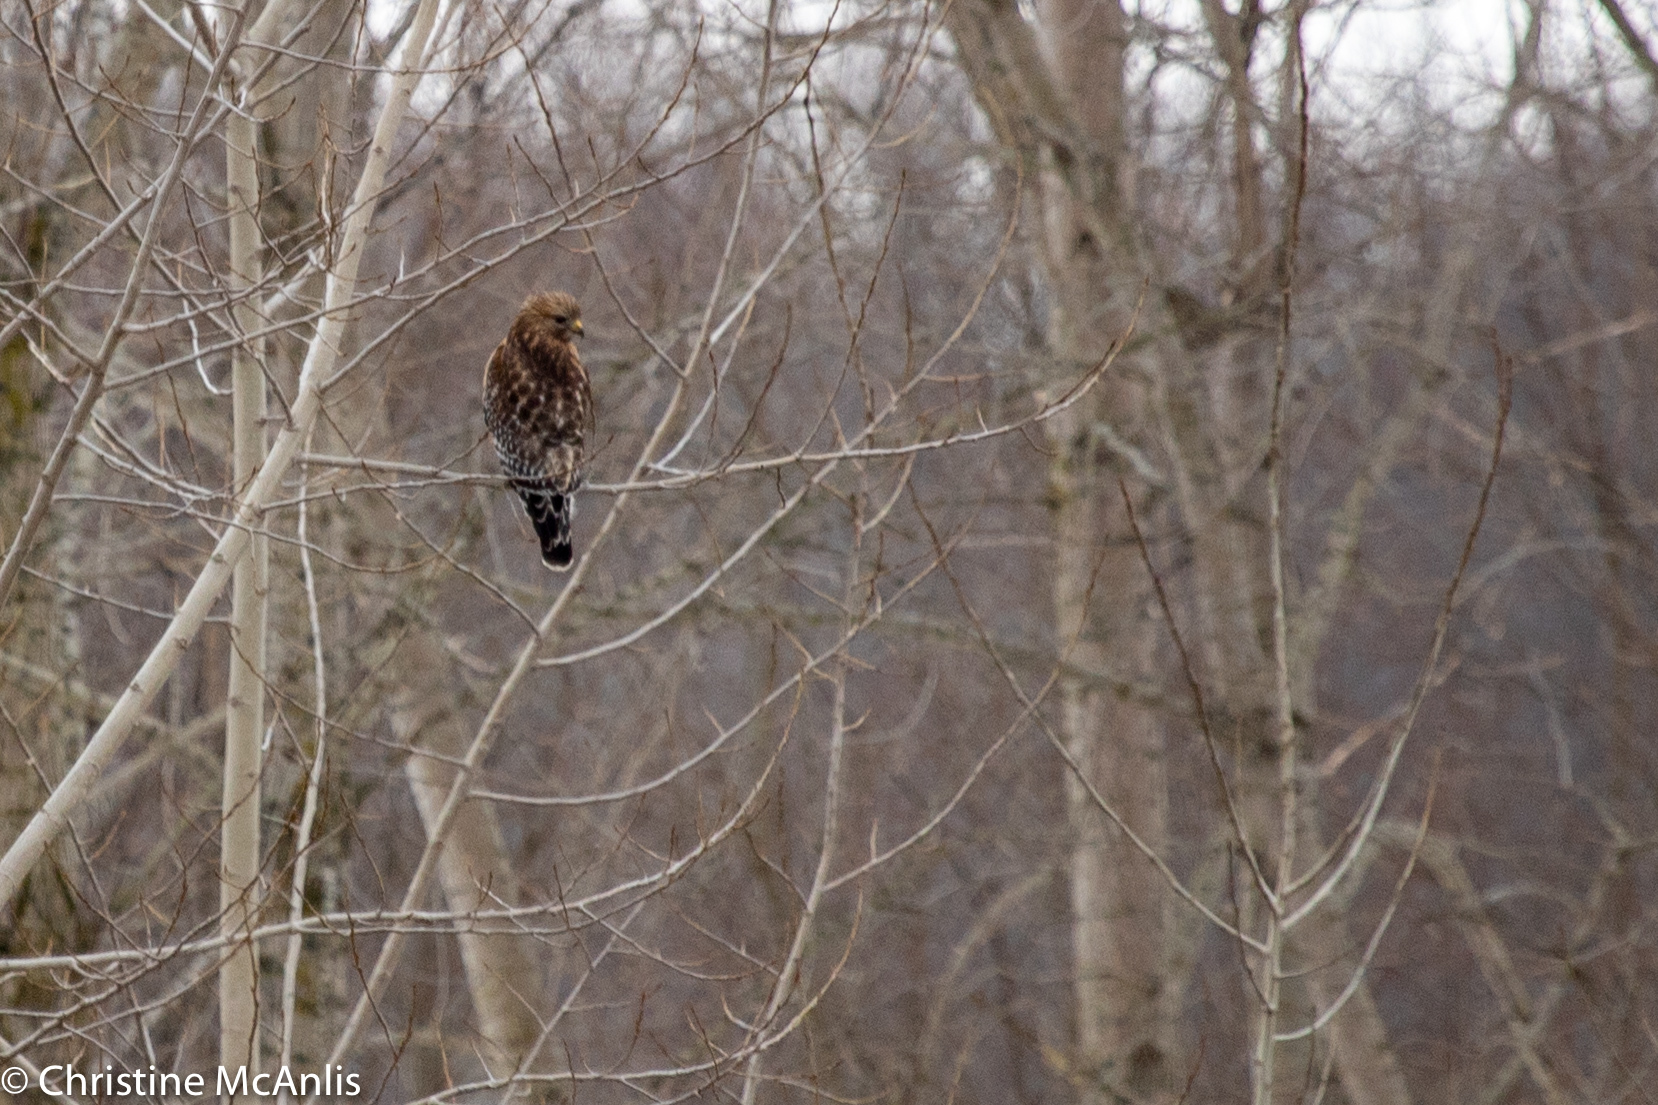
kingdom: Animalia
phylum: Chordata
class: Aves
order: Accipitriformes
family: Accipitridae
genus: Buteo
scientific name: Buteo lineatus
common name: Red-shouldered hawk
